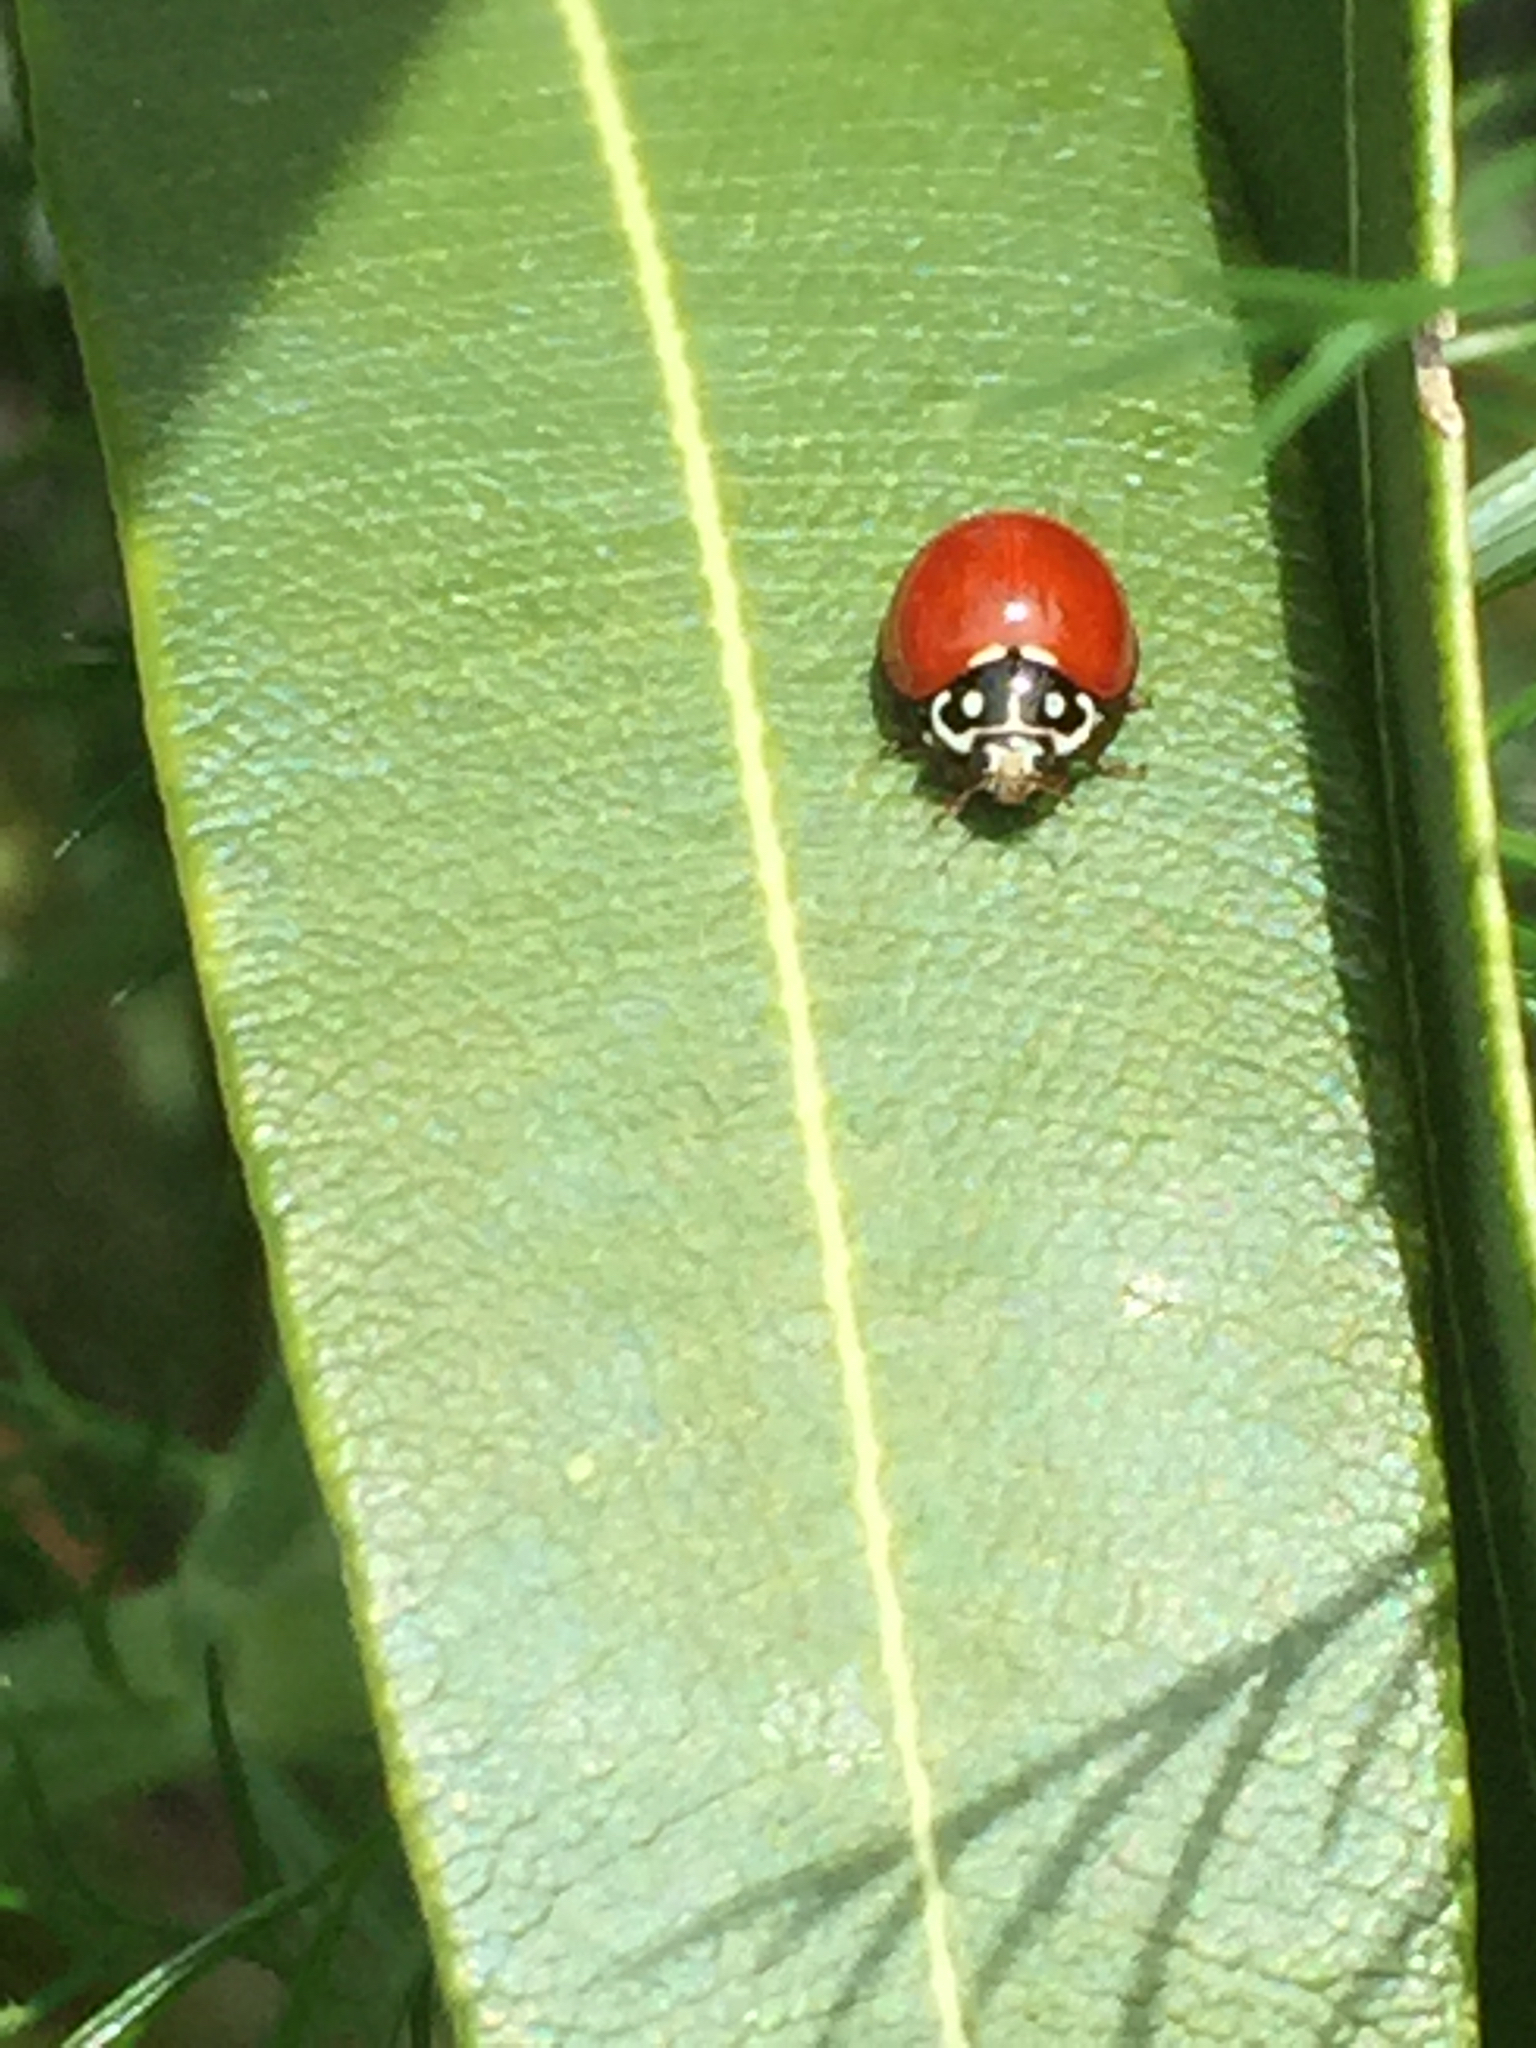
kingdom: Animalia
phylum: Arthropoda
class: Insecta
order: Coleoptera
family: Coccinellidae
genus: Cycloneda
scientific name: Cycloneda sanguinea
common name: Ladybird beetle
